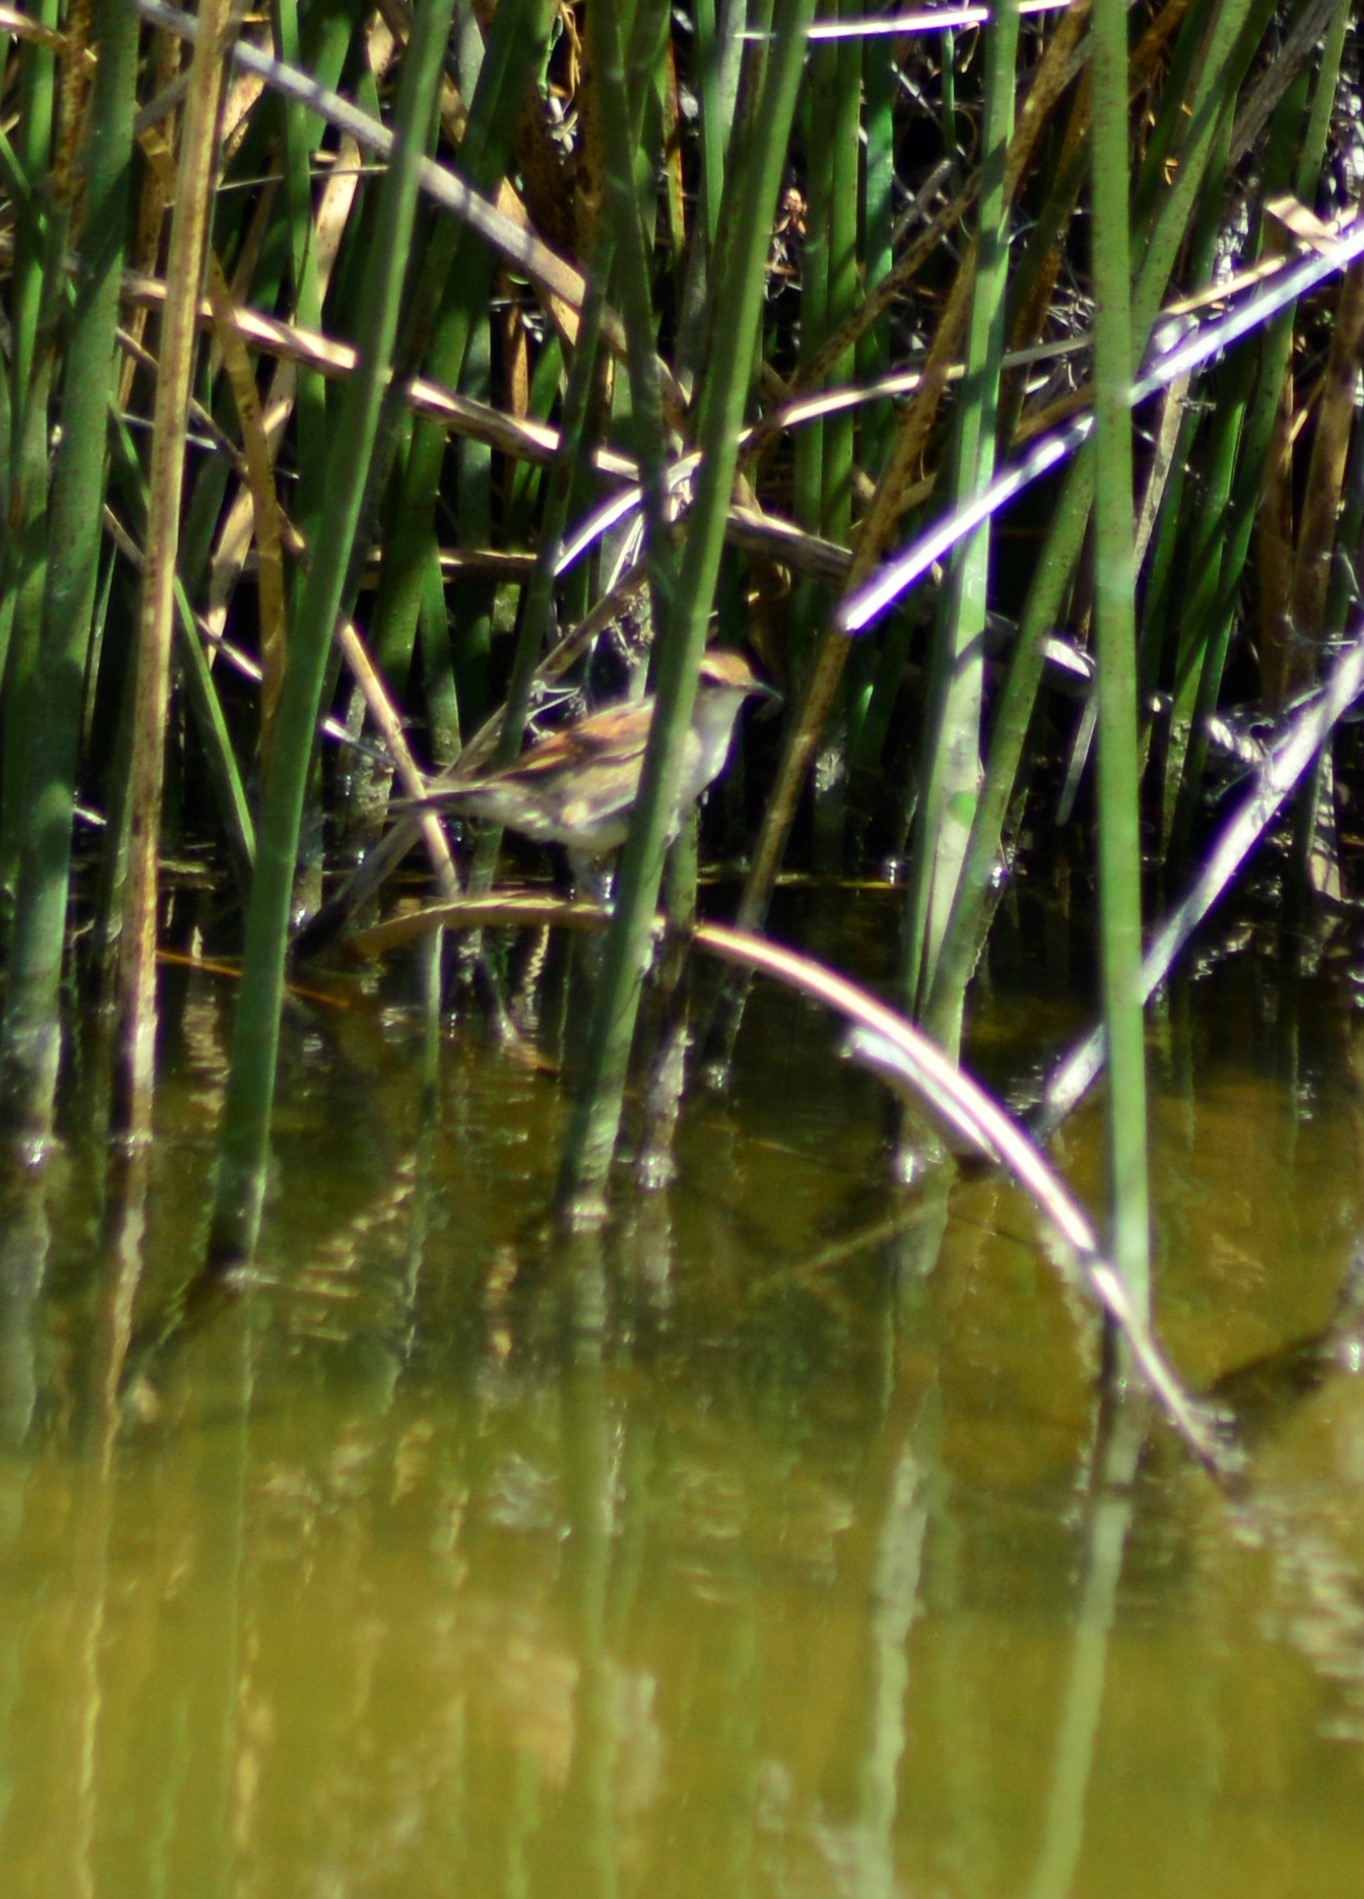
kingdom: Animalia
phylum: Chordata
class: Aves
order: Passeriformes
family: Furnariidae
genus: Phleocryptes
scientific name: Phleocryptes melanops
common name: Wren-like rushbird
